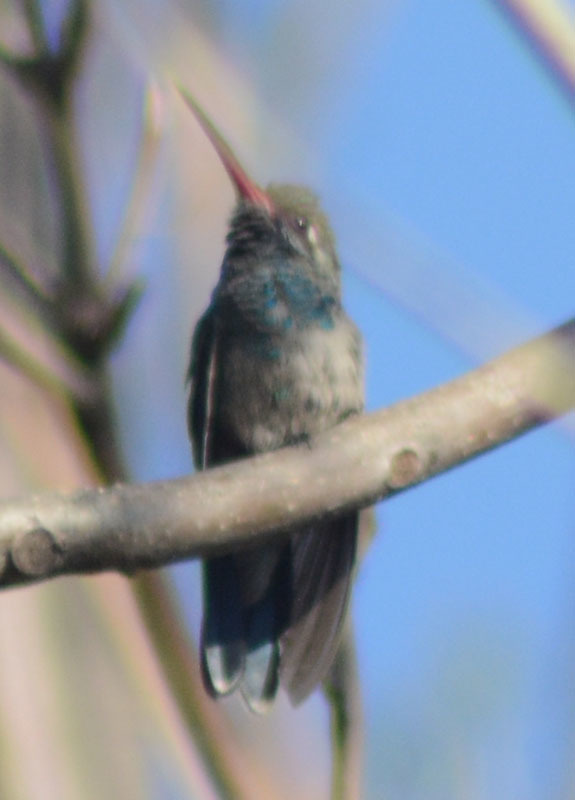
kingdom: Animalia
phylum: Chordata
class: Aves
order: Apodiformes
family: Trochilidae
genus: Cynanthus
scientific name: Cynanthus latirostris
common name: Broad-billed hummingbird
